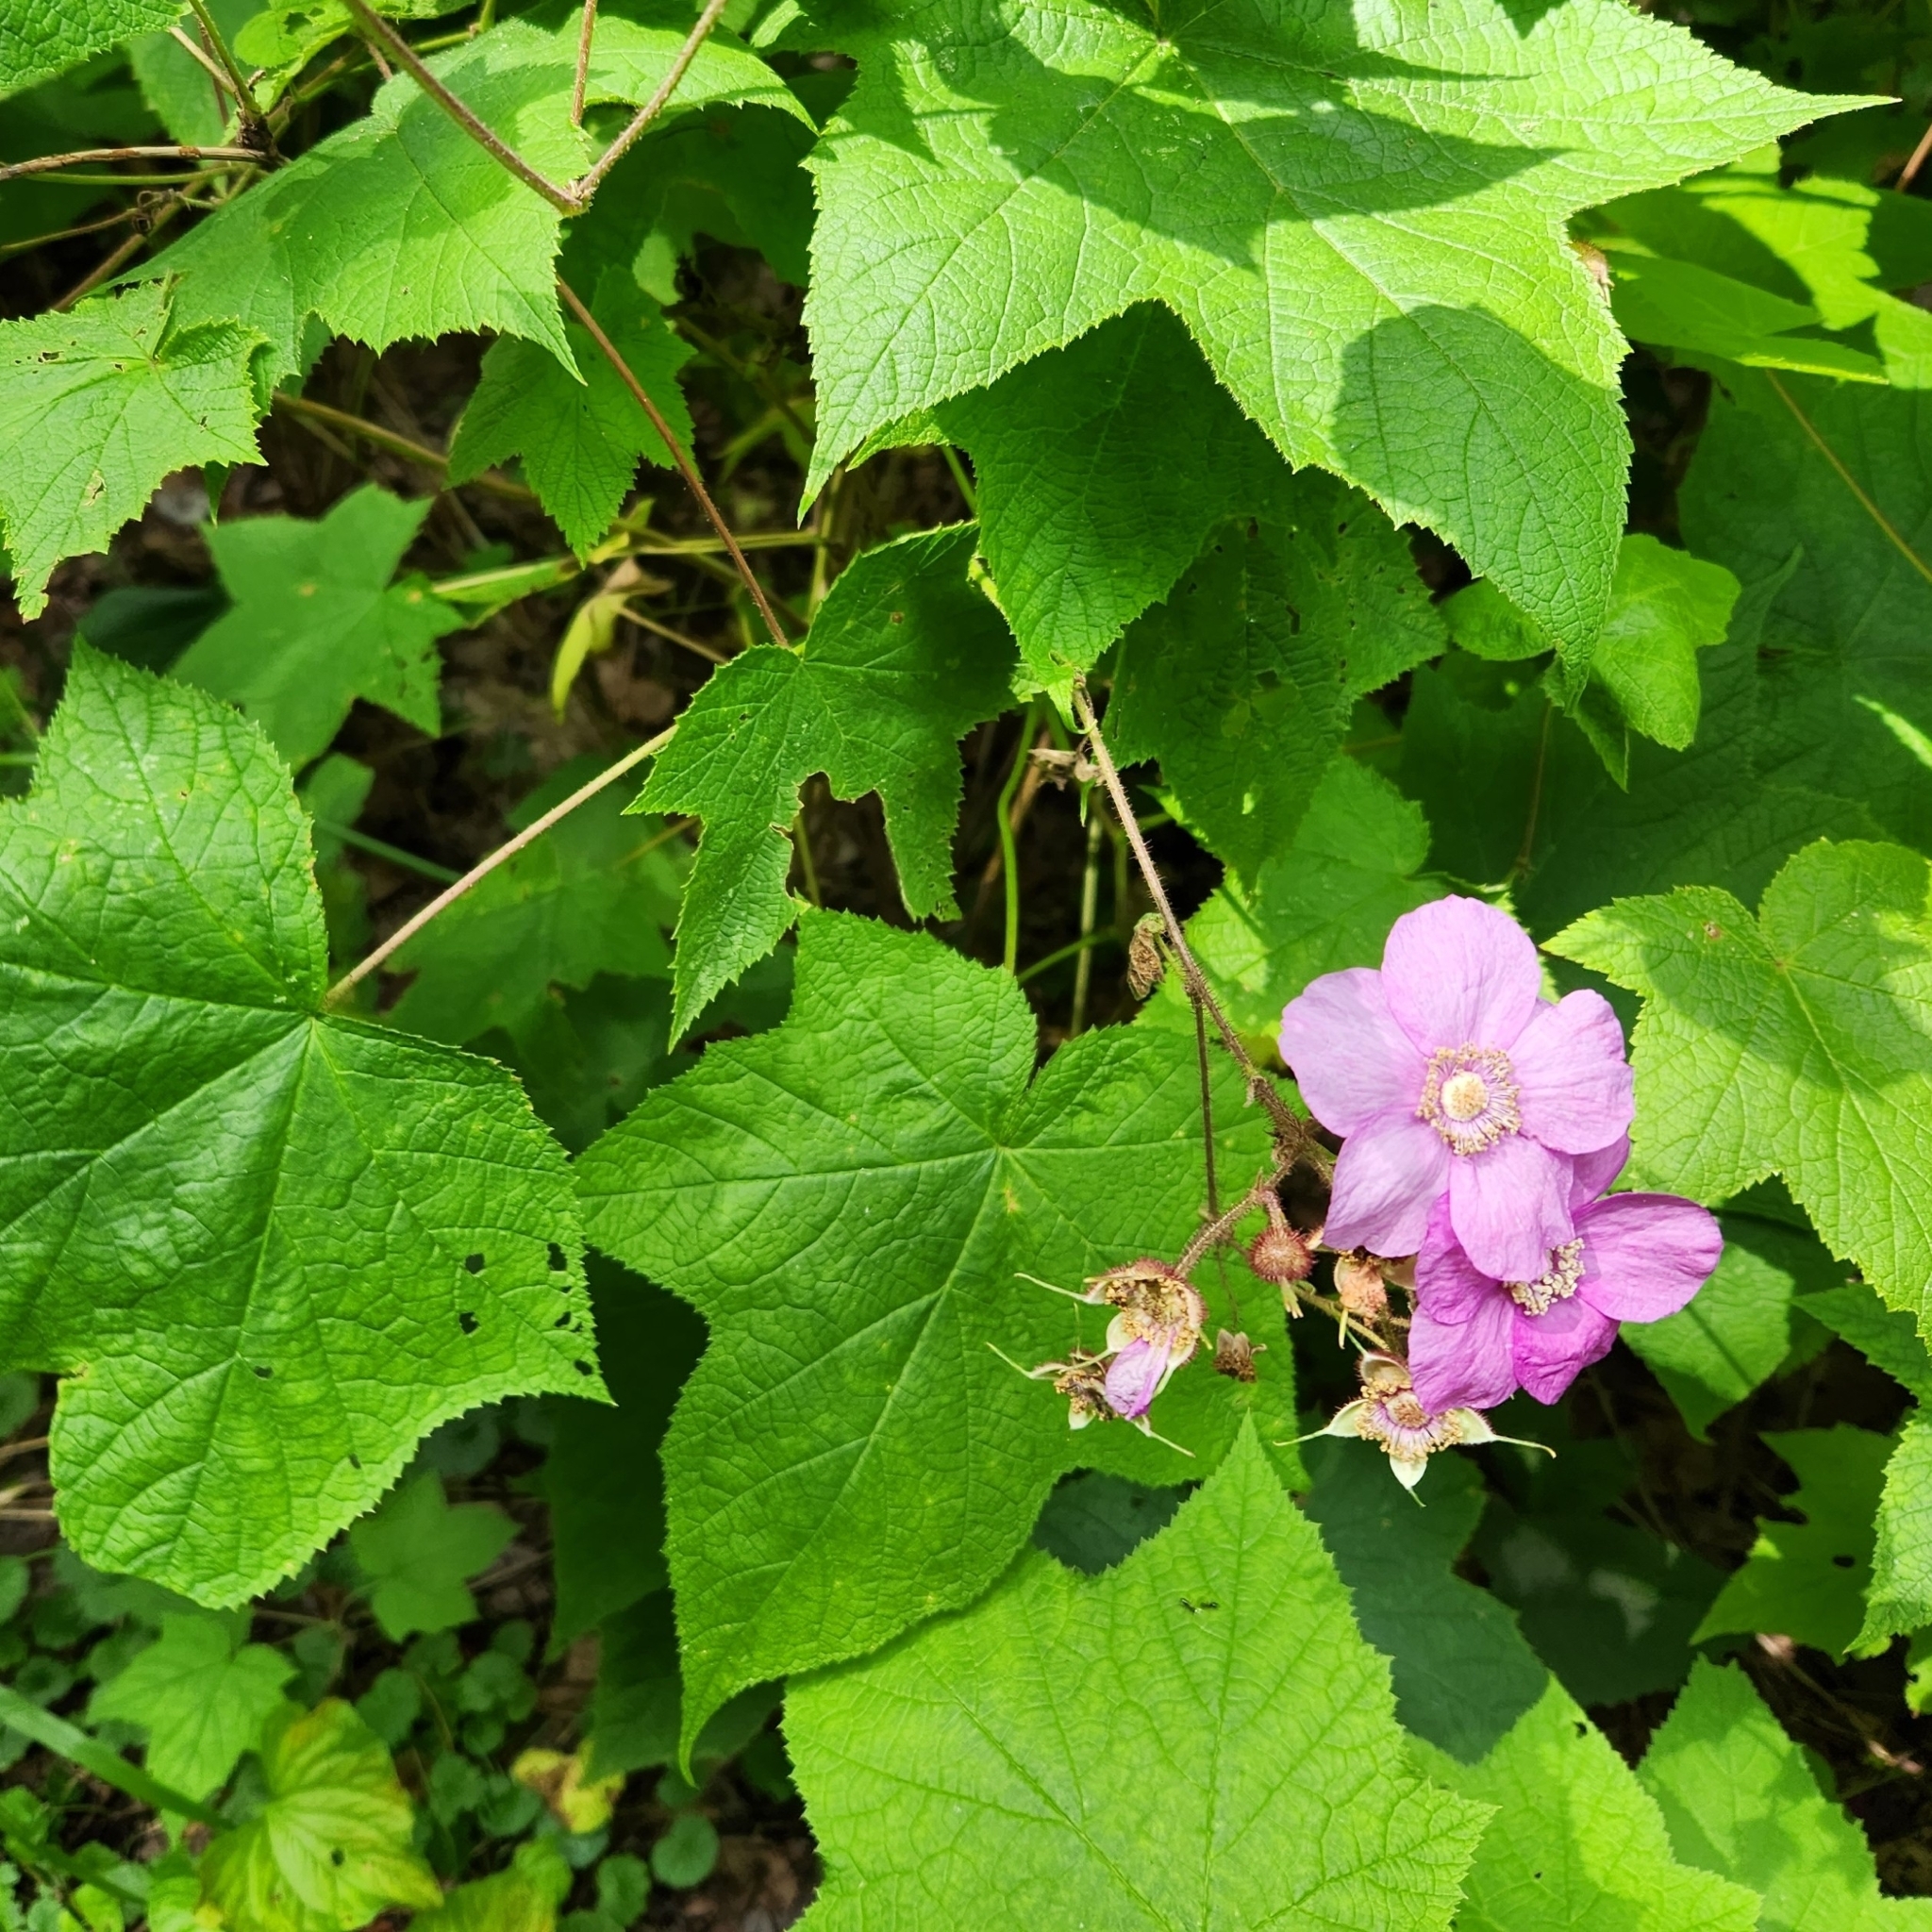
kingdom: Plantae
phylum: Tracheophyta
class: Magnoliopsida
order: Rosales
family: Rosaceae
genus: Rubus
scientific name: Rubus odoratus
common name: Purple-flowered raspberry
